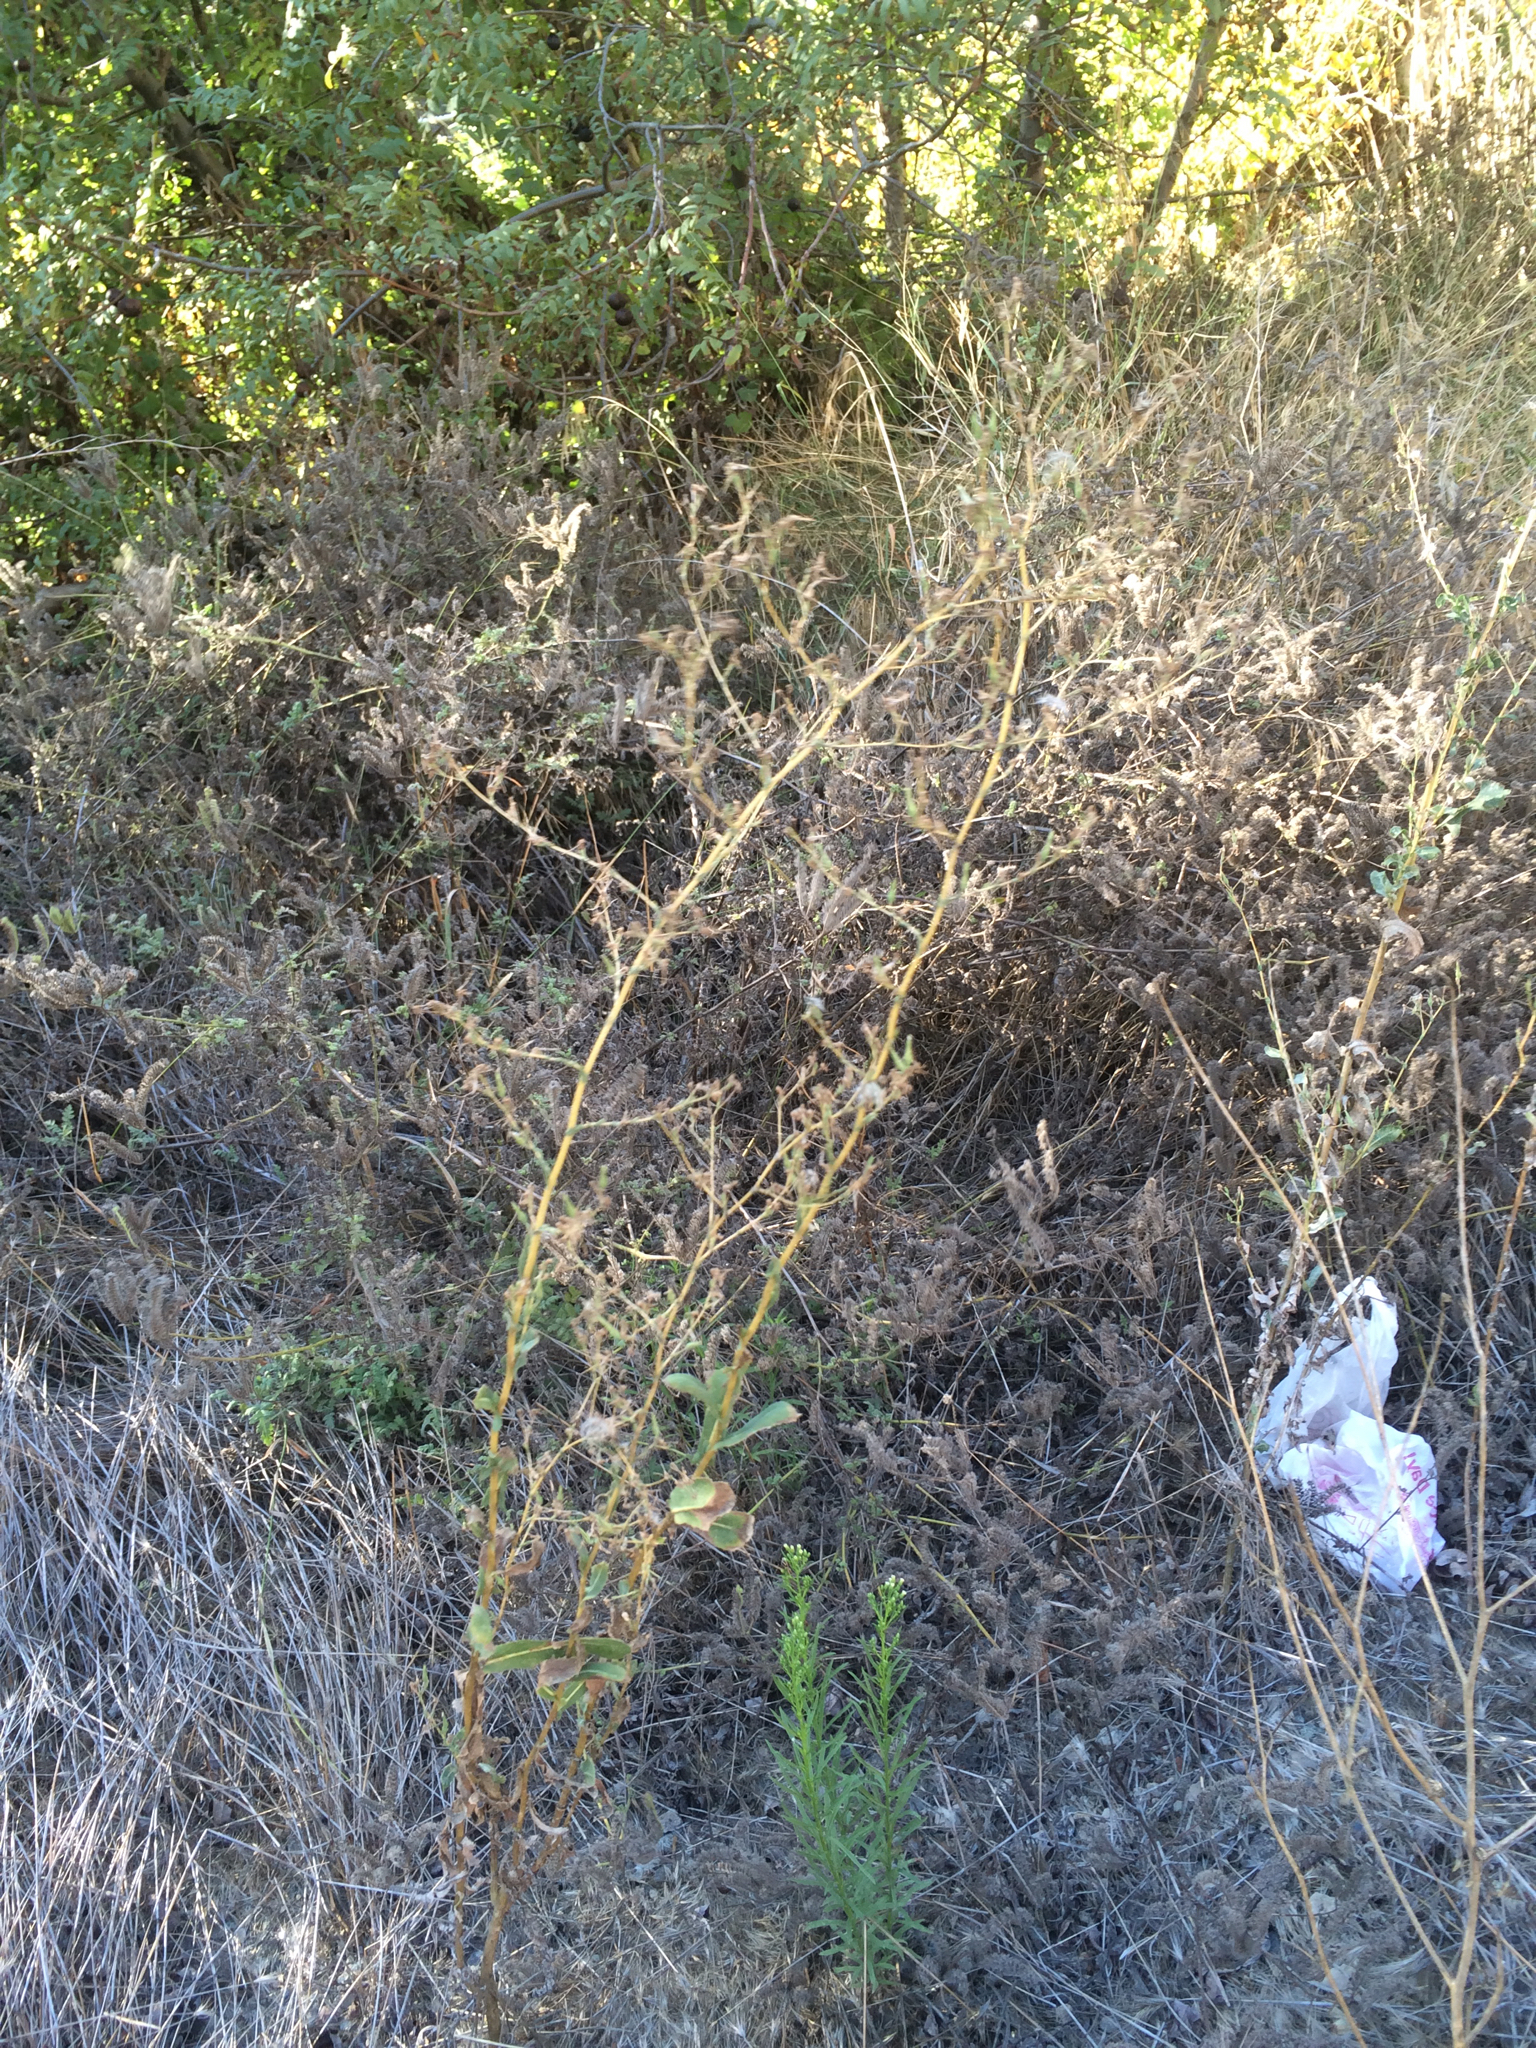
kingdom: Plantae
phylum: Tracheophyta
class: Magnoliopsida
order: Asterales
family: Asteraceae
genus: Lactuca
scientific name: Lactuca serriola
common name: Prickly lettuce
